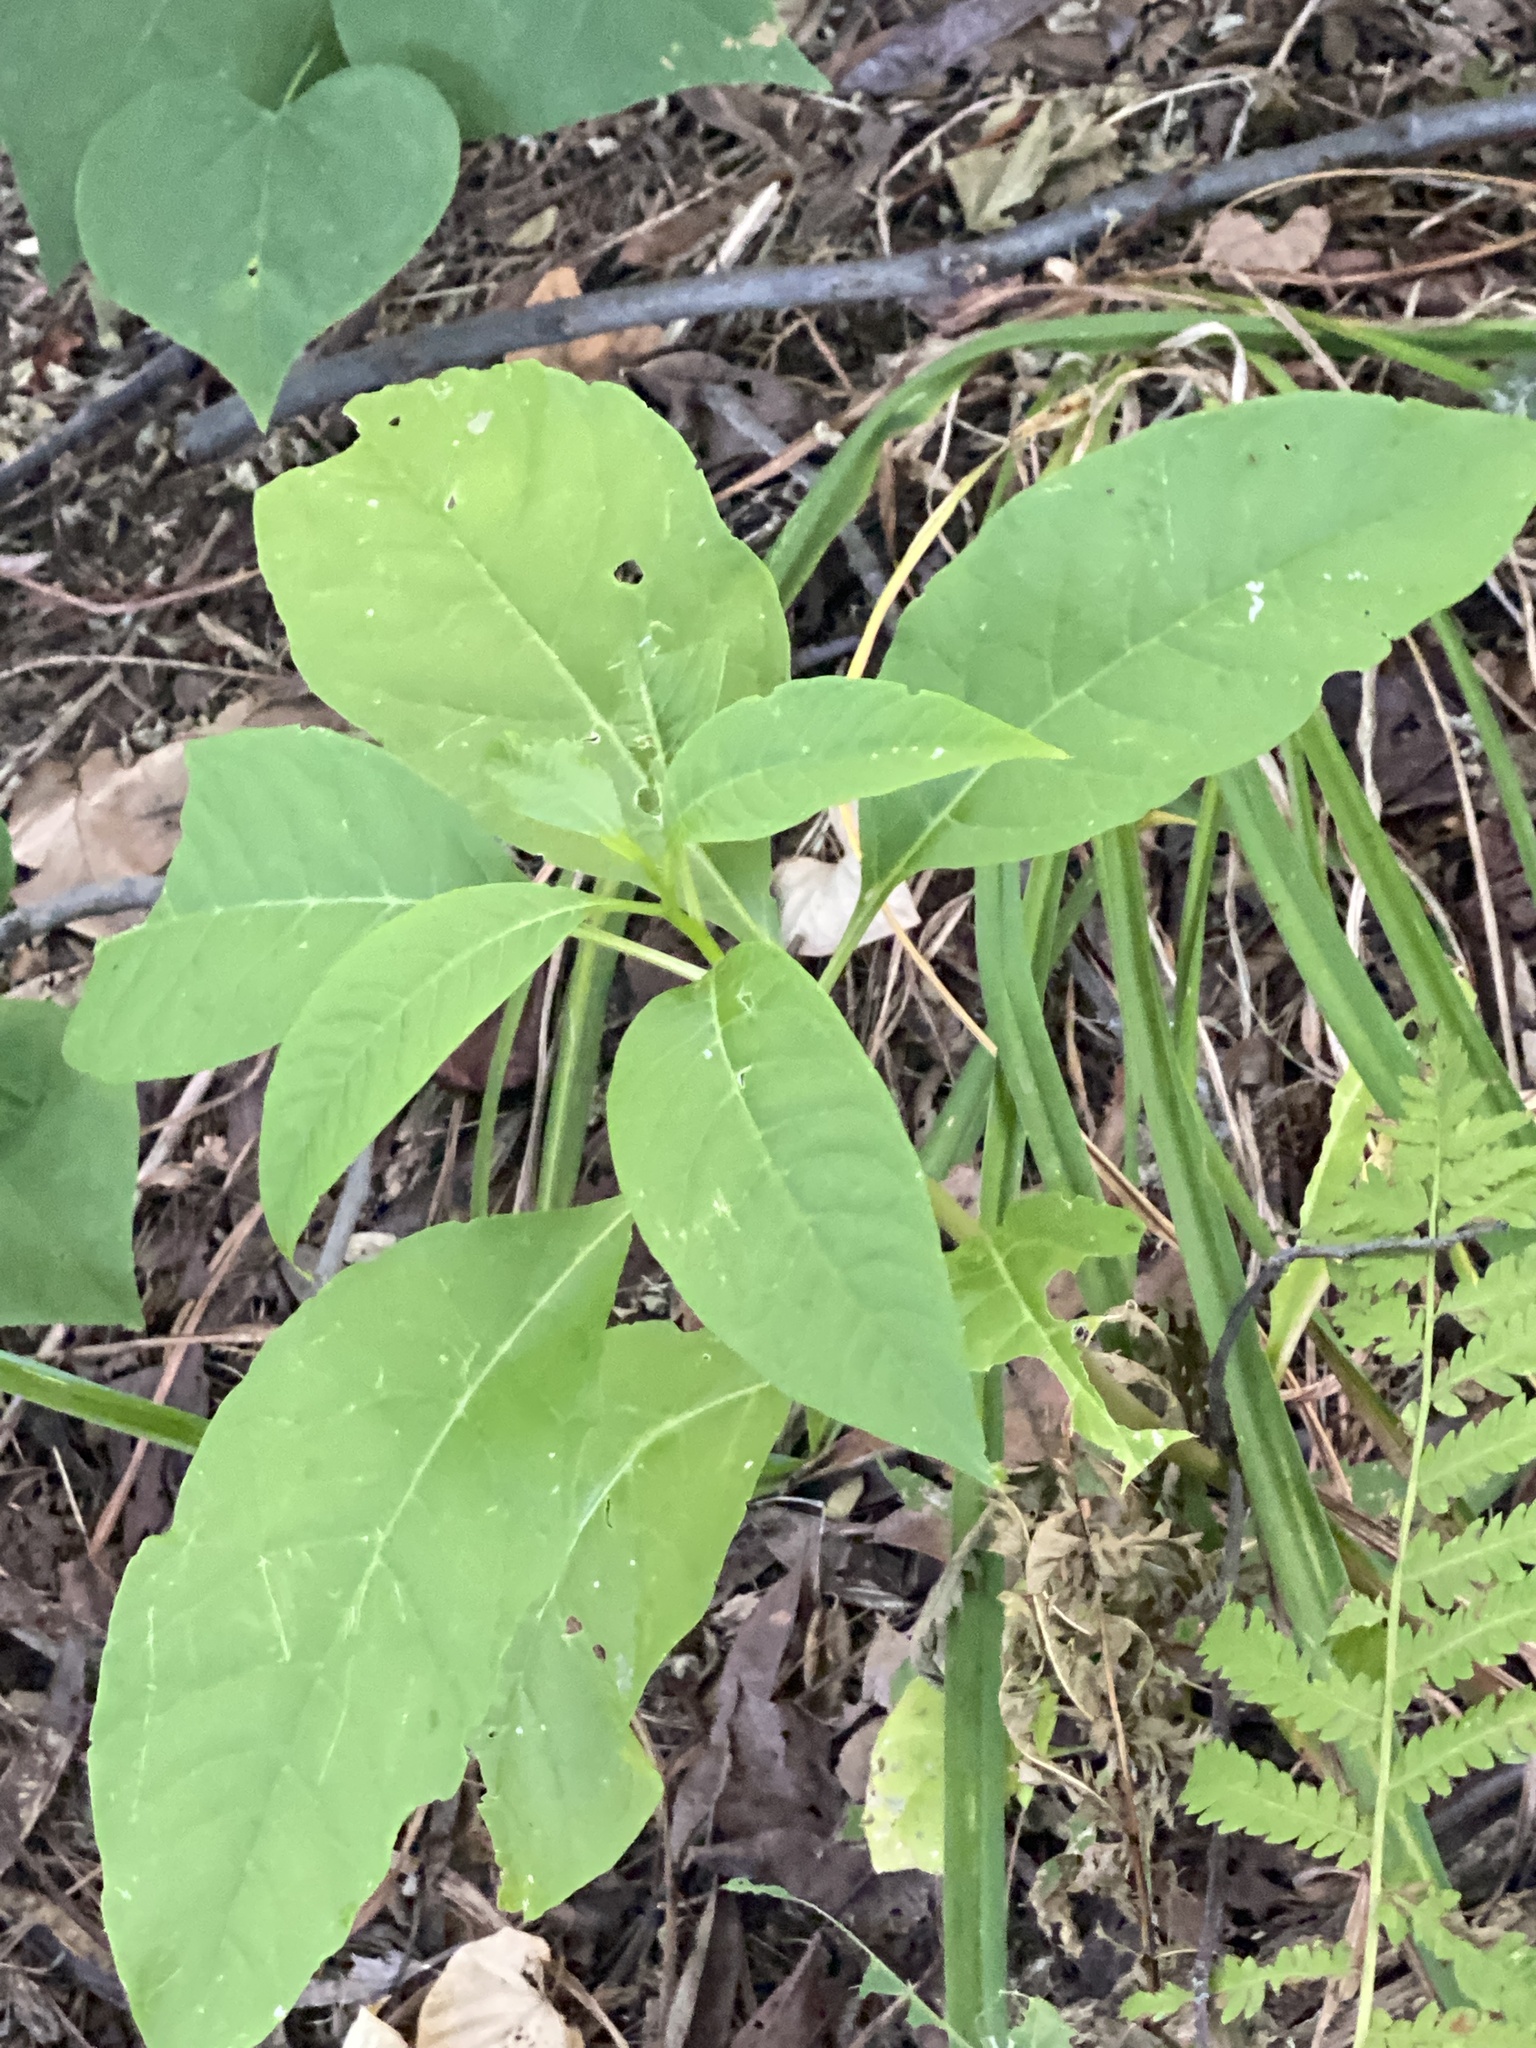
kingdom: Plantae
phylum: Tracheophyta
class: Magnoliopsida
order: Caryophyllales
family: Phytolaccaceae
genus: Phytolacca
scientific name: Phytolacca americana
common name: American pokeweed
